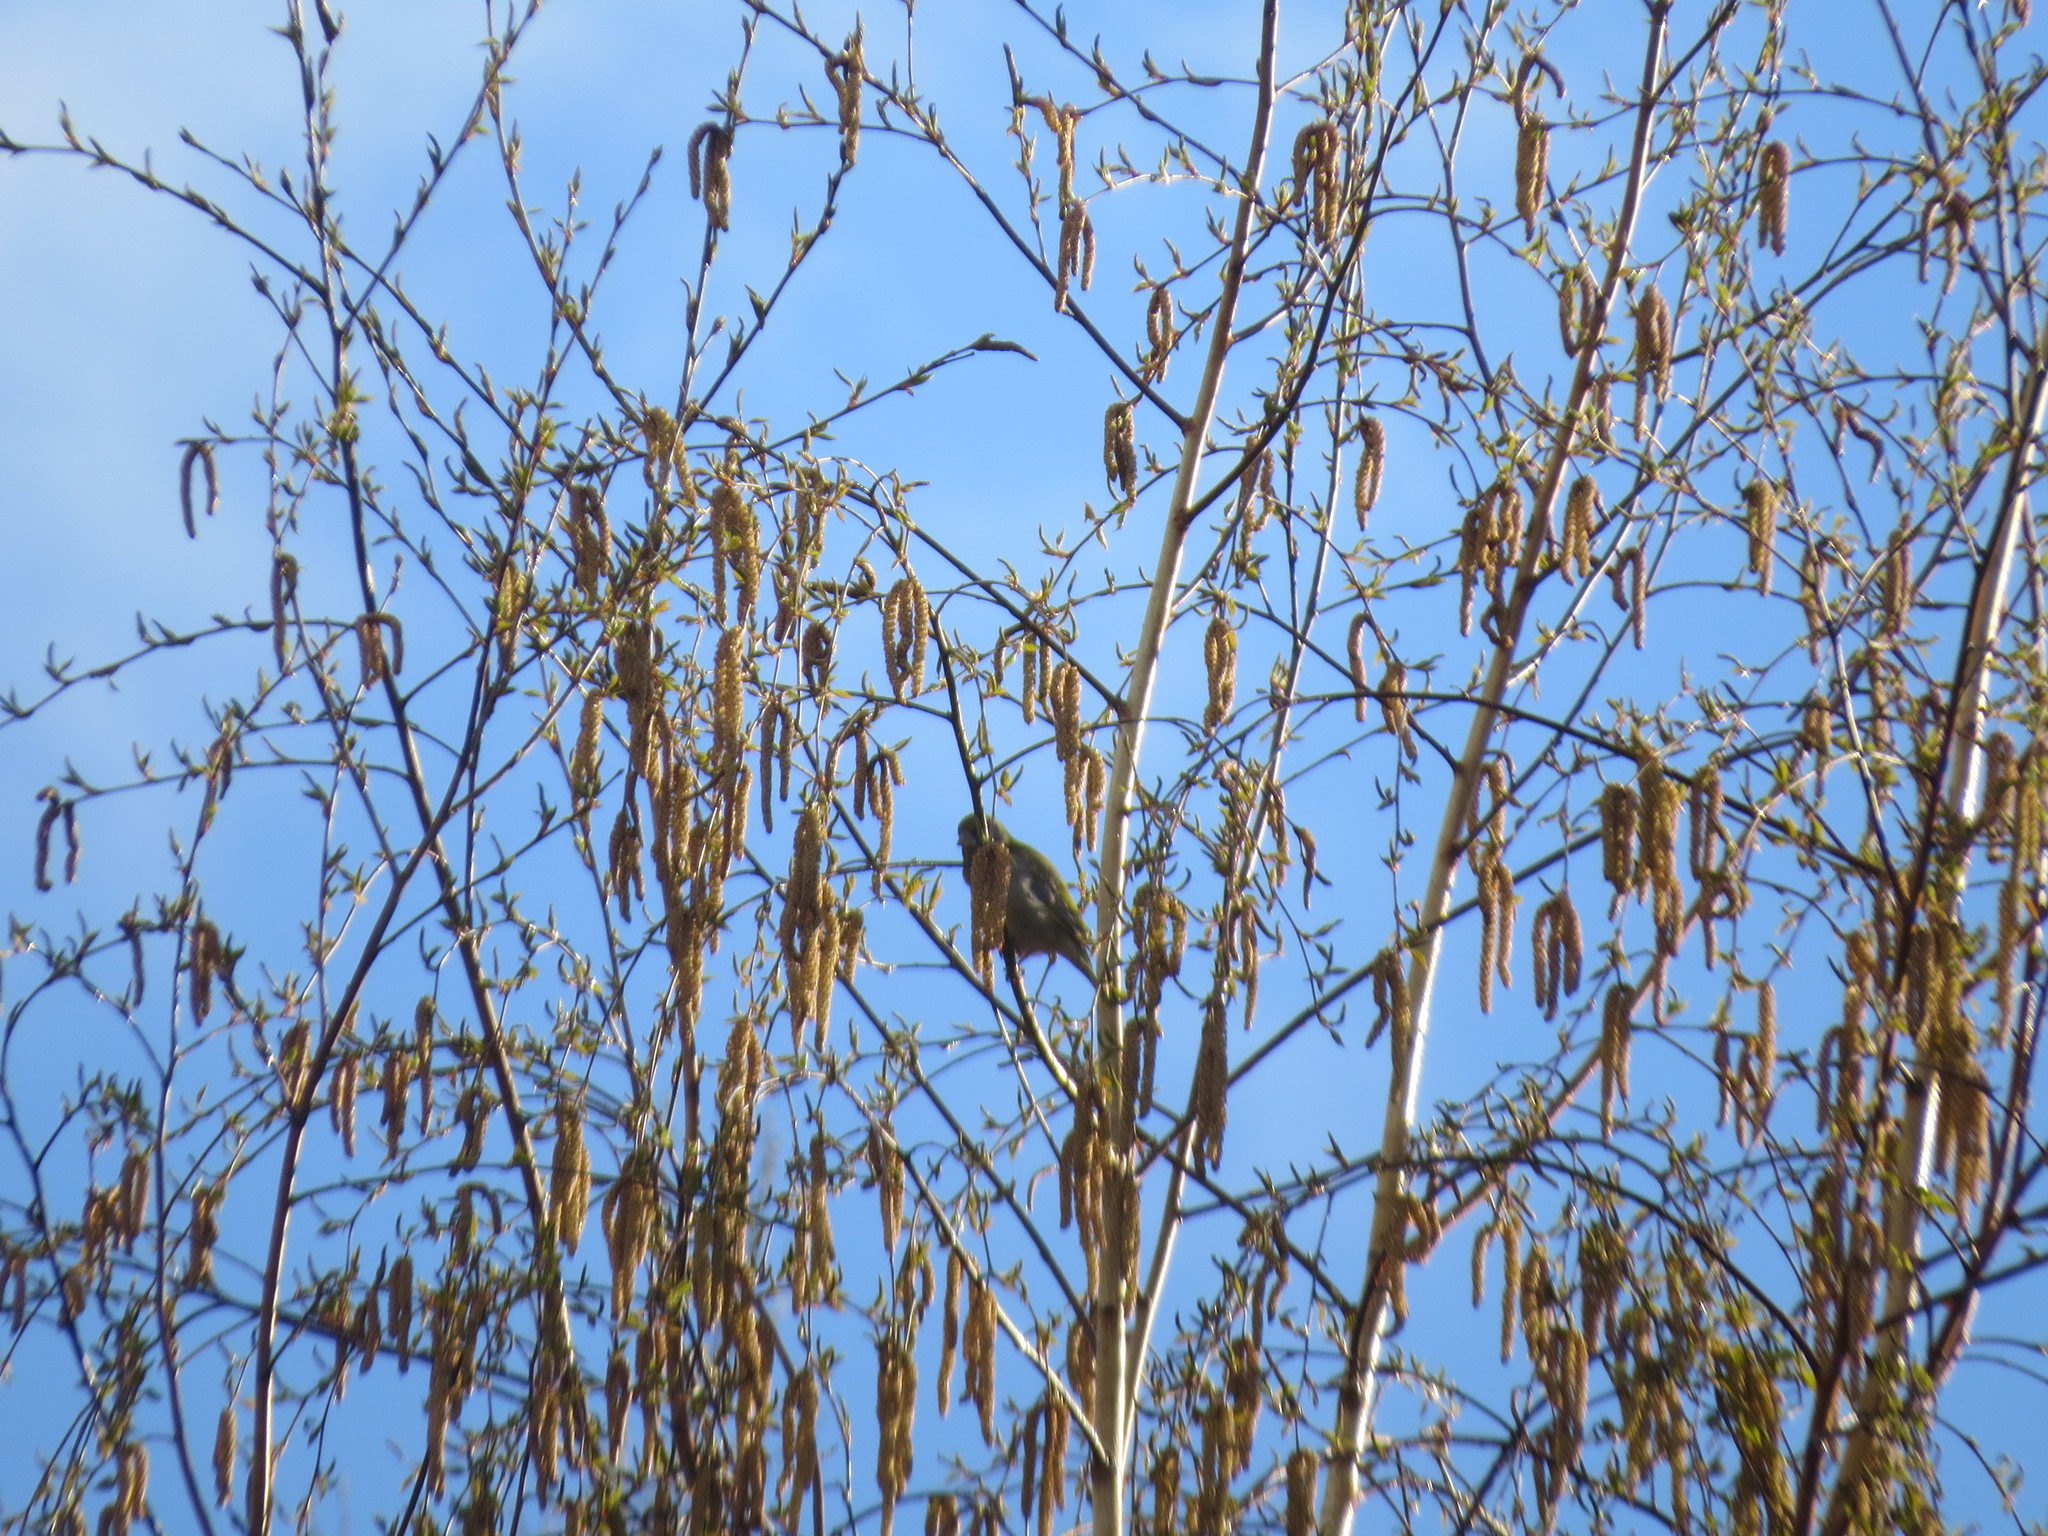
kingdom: Animalia
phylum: Chordata
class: Aves
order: Passeriformes
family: Fringillidae
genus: Spinus
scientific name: Spinus spinus
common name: Eurasian siskin
